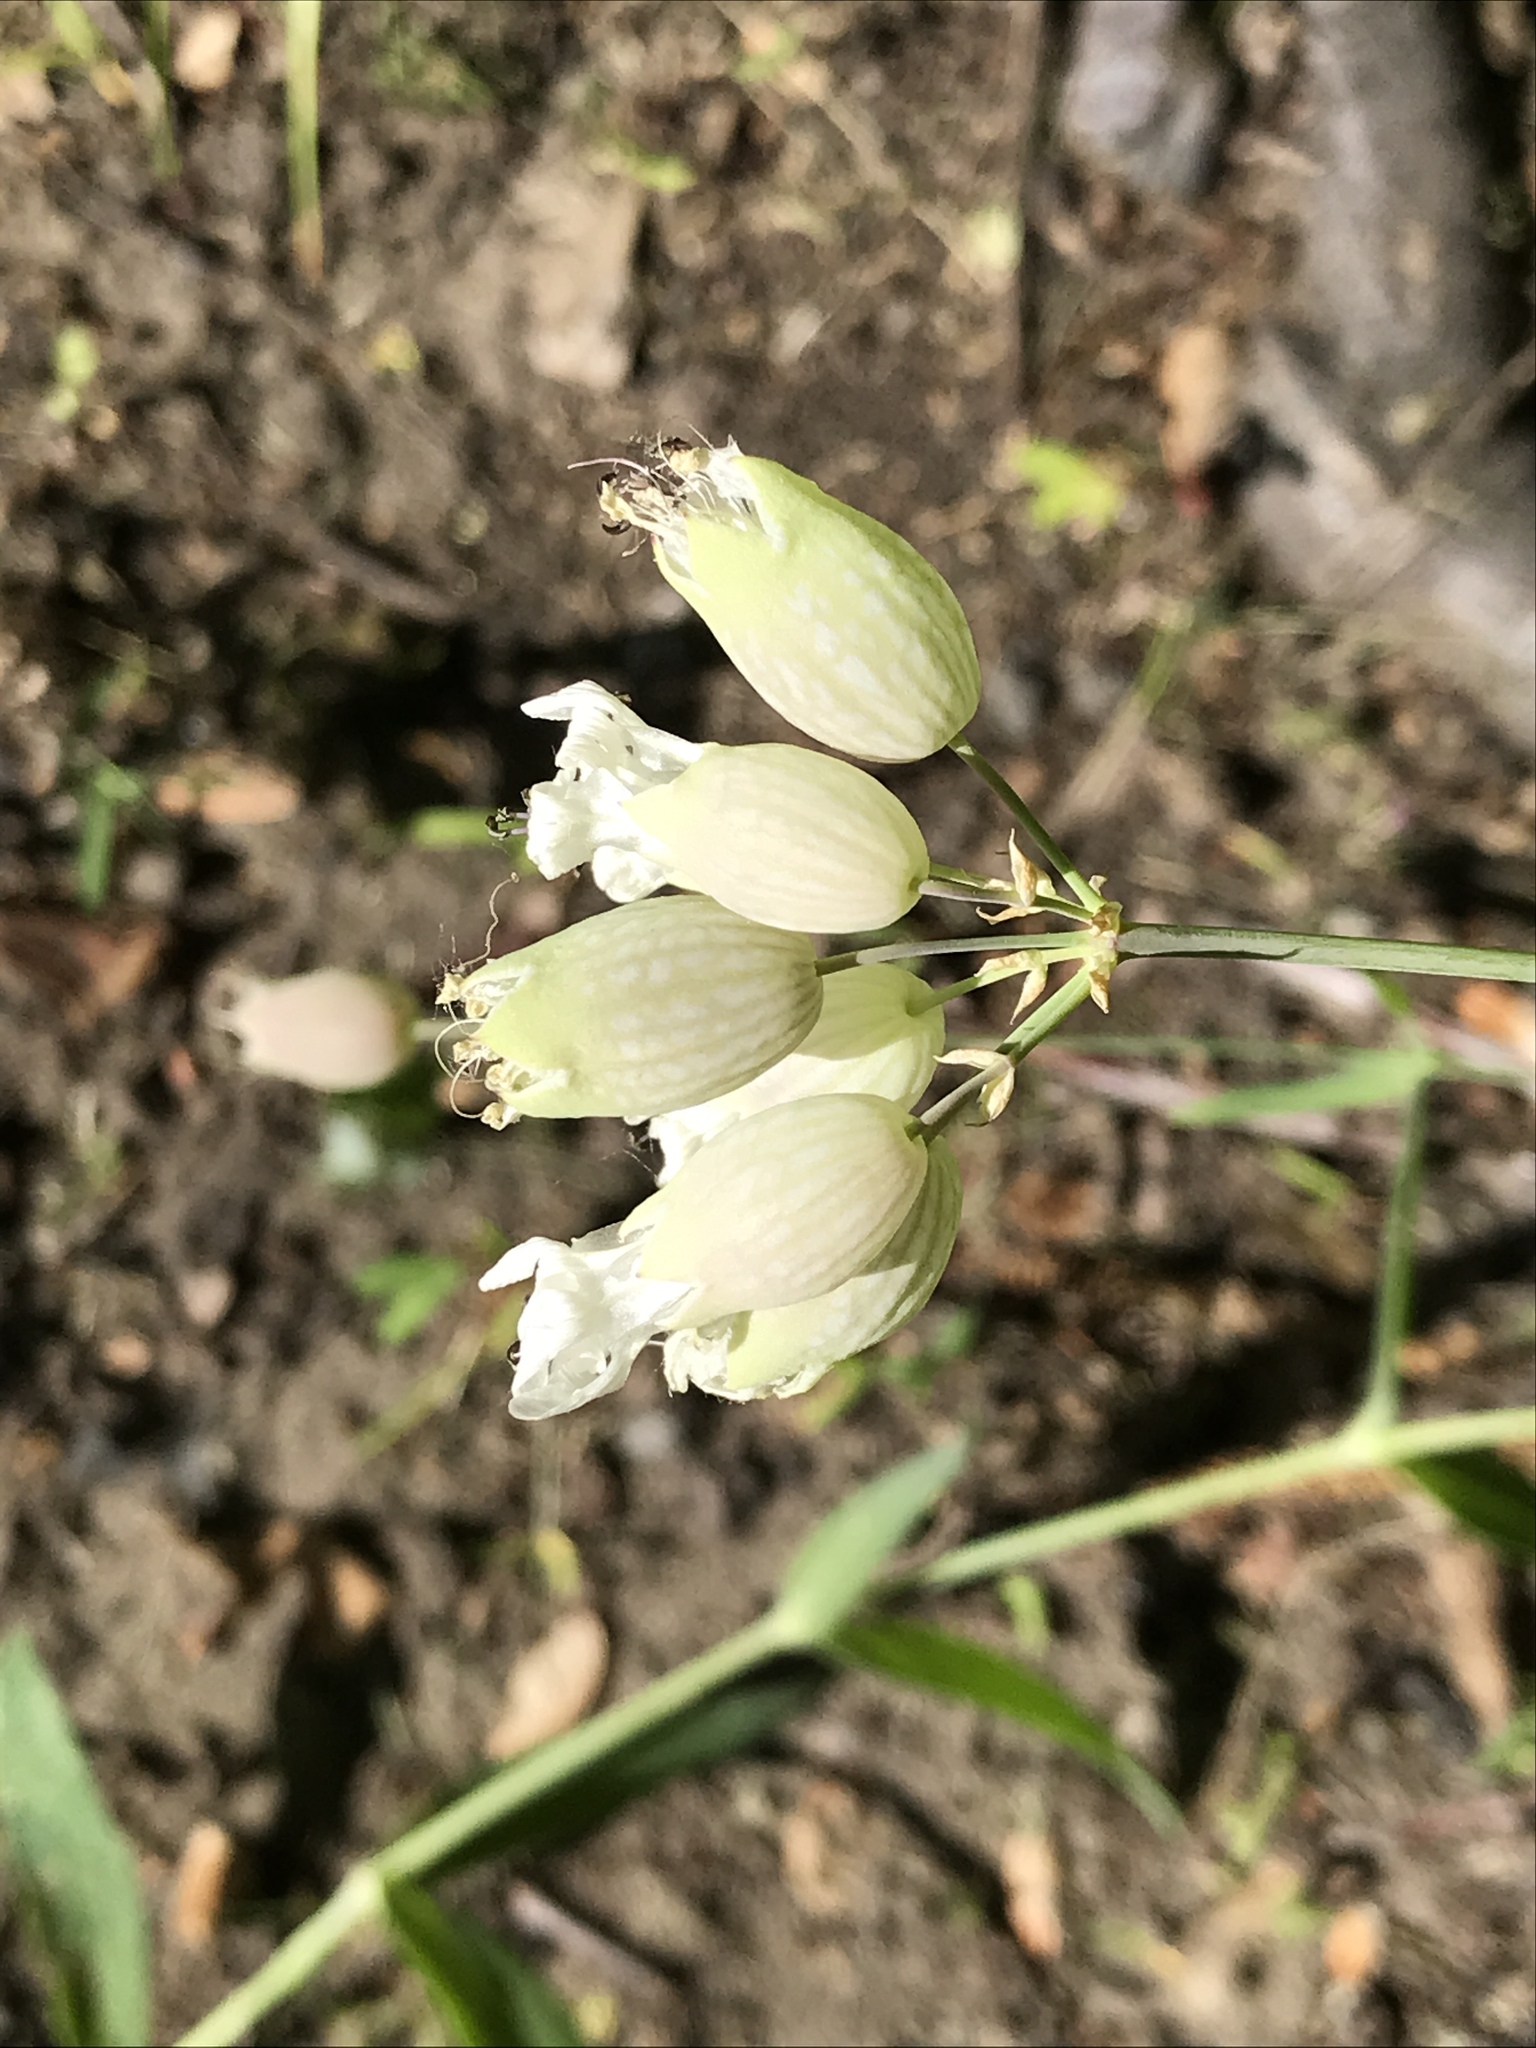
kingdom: Plantae
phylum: Tracheophyta
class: Magnoliopsida
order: Caryophyllales
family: Caryophyllaceae
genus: Silene
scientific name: Silene vulgaris
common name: Bladder campion
